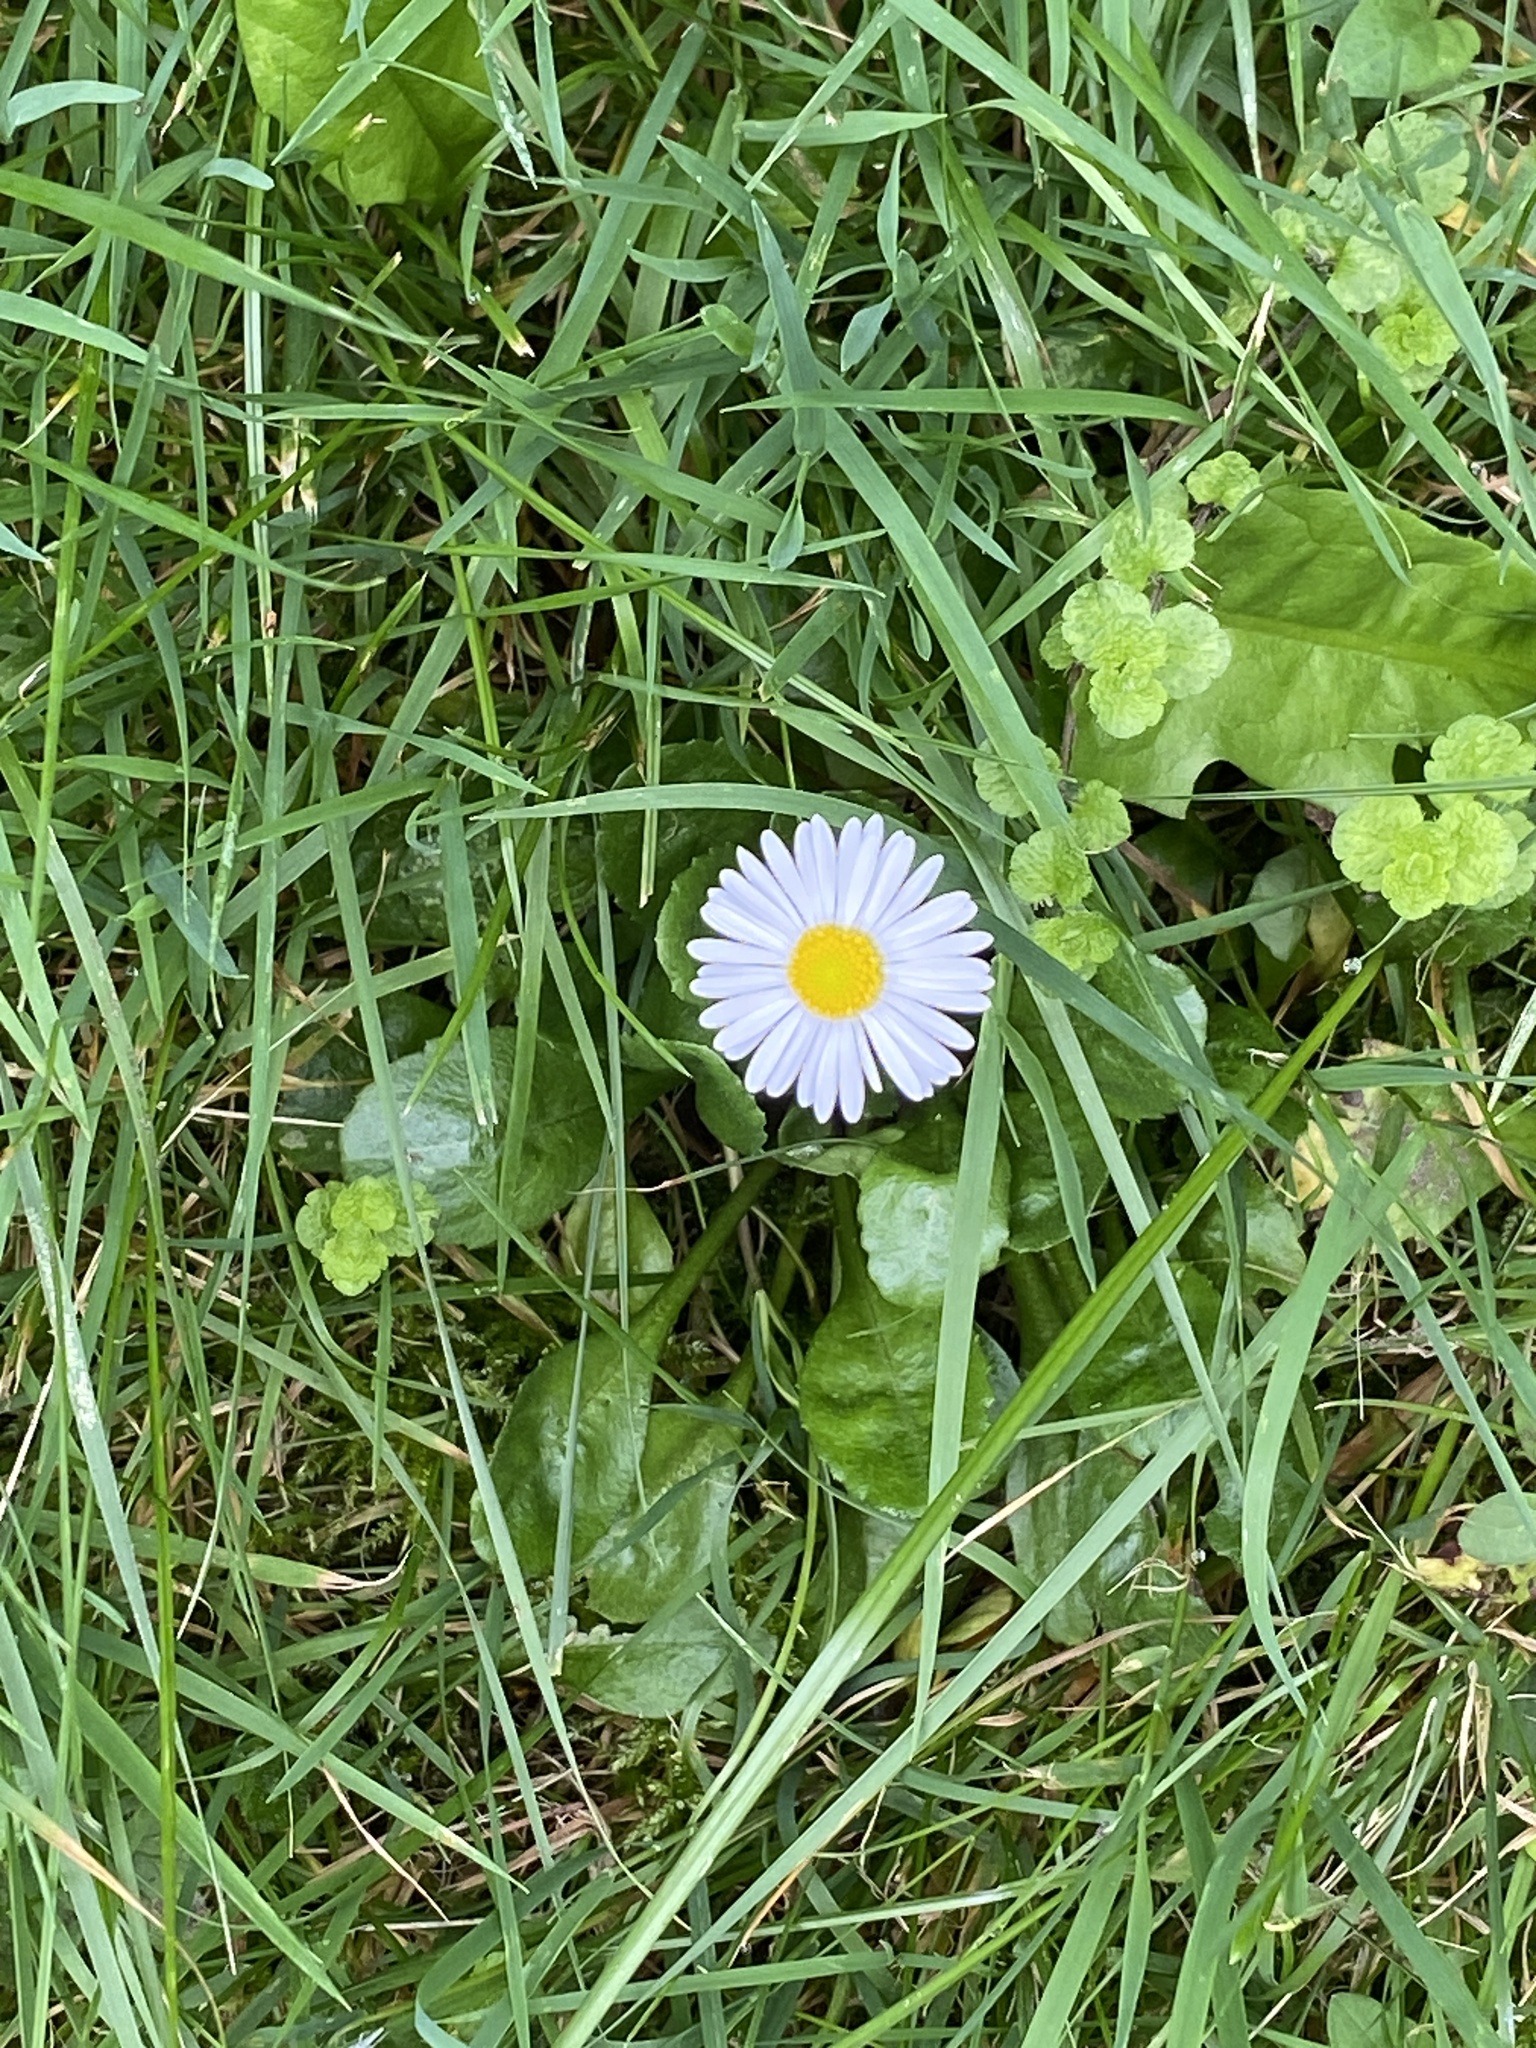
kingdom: Plantae
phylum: Tracheophyta
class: Magnoliopsida
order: Asterales
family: Asteraceae
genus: Bellis
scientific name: Bellis perennis
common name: Lawndaisy
